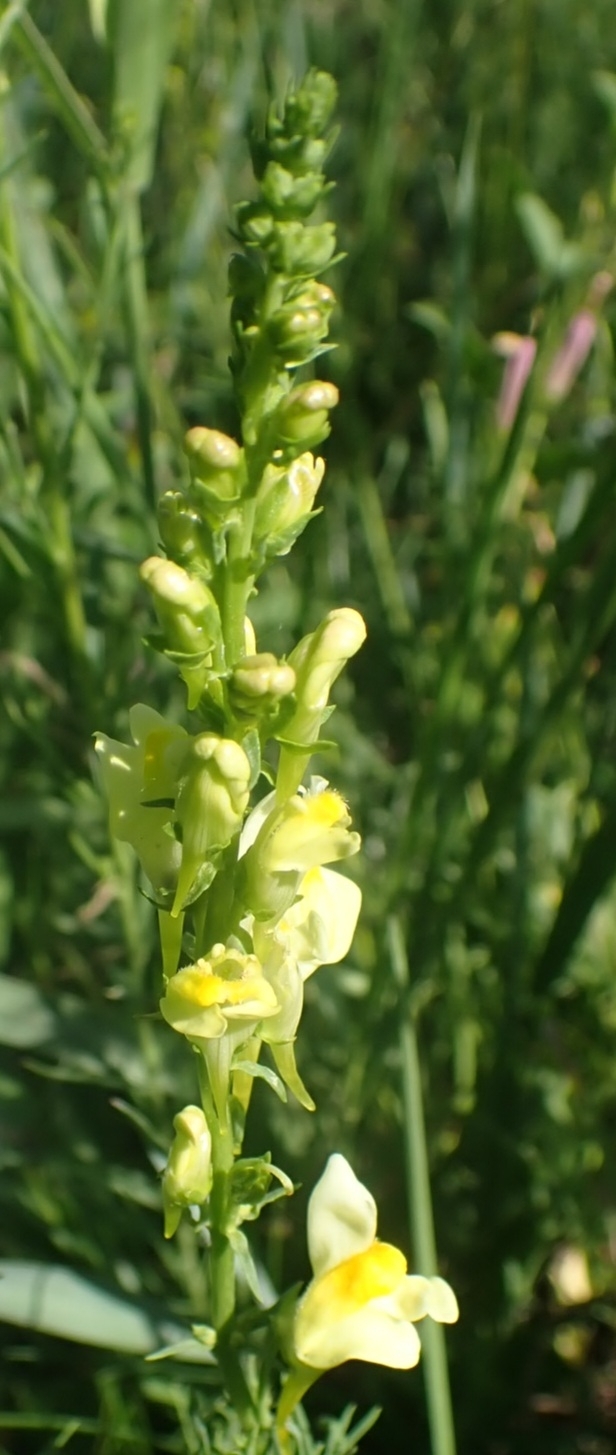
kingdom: Plantae
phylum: Tracheophyta
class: Magnoliopsida
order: Lamiales
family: Plantaginaceae
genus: Linaria
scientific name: Linaria vulgaris
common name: Butter and eggs
